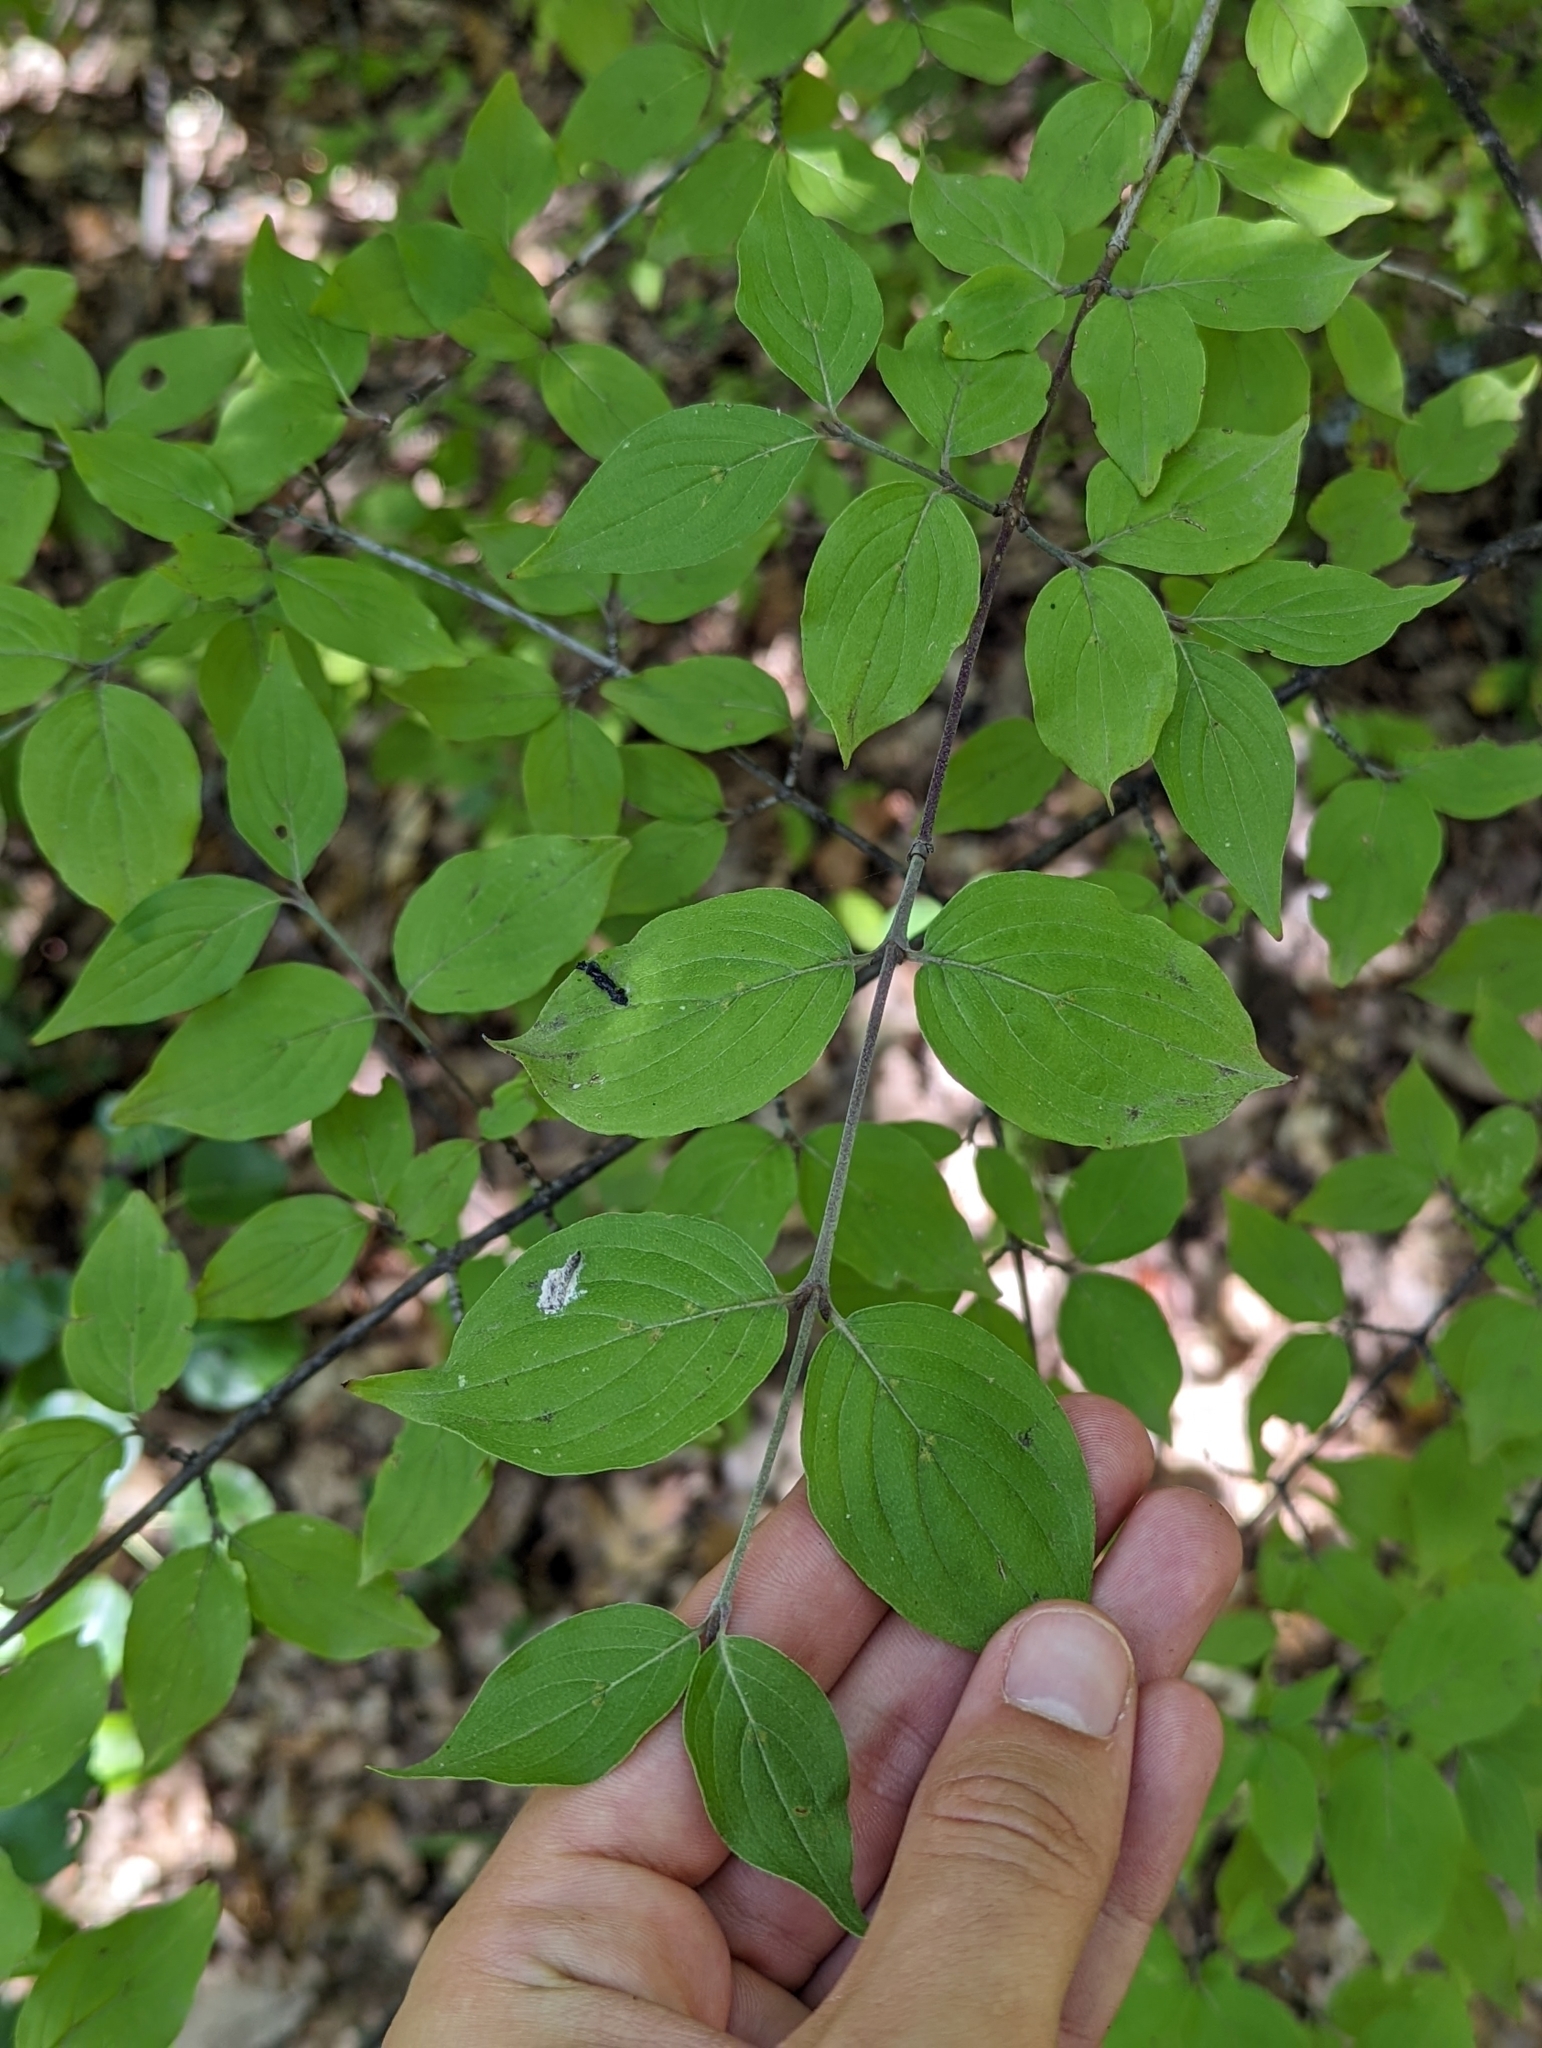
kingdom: Plantae
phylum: Tracheophyta
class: Magnoliopsida
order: Cornales
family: Cornaceae
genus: Cornus
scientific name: Cornus mas
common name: Cornelian-cherry
